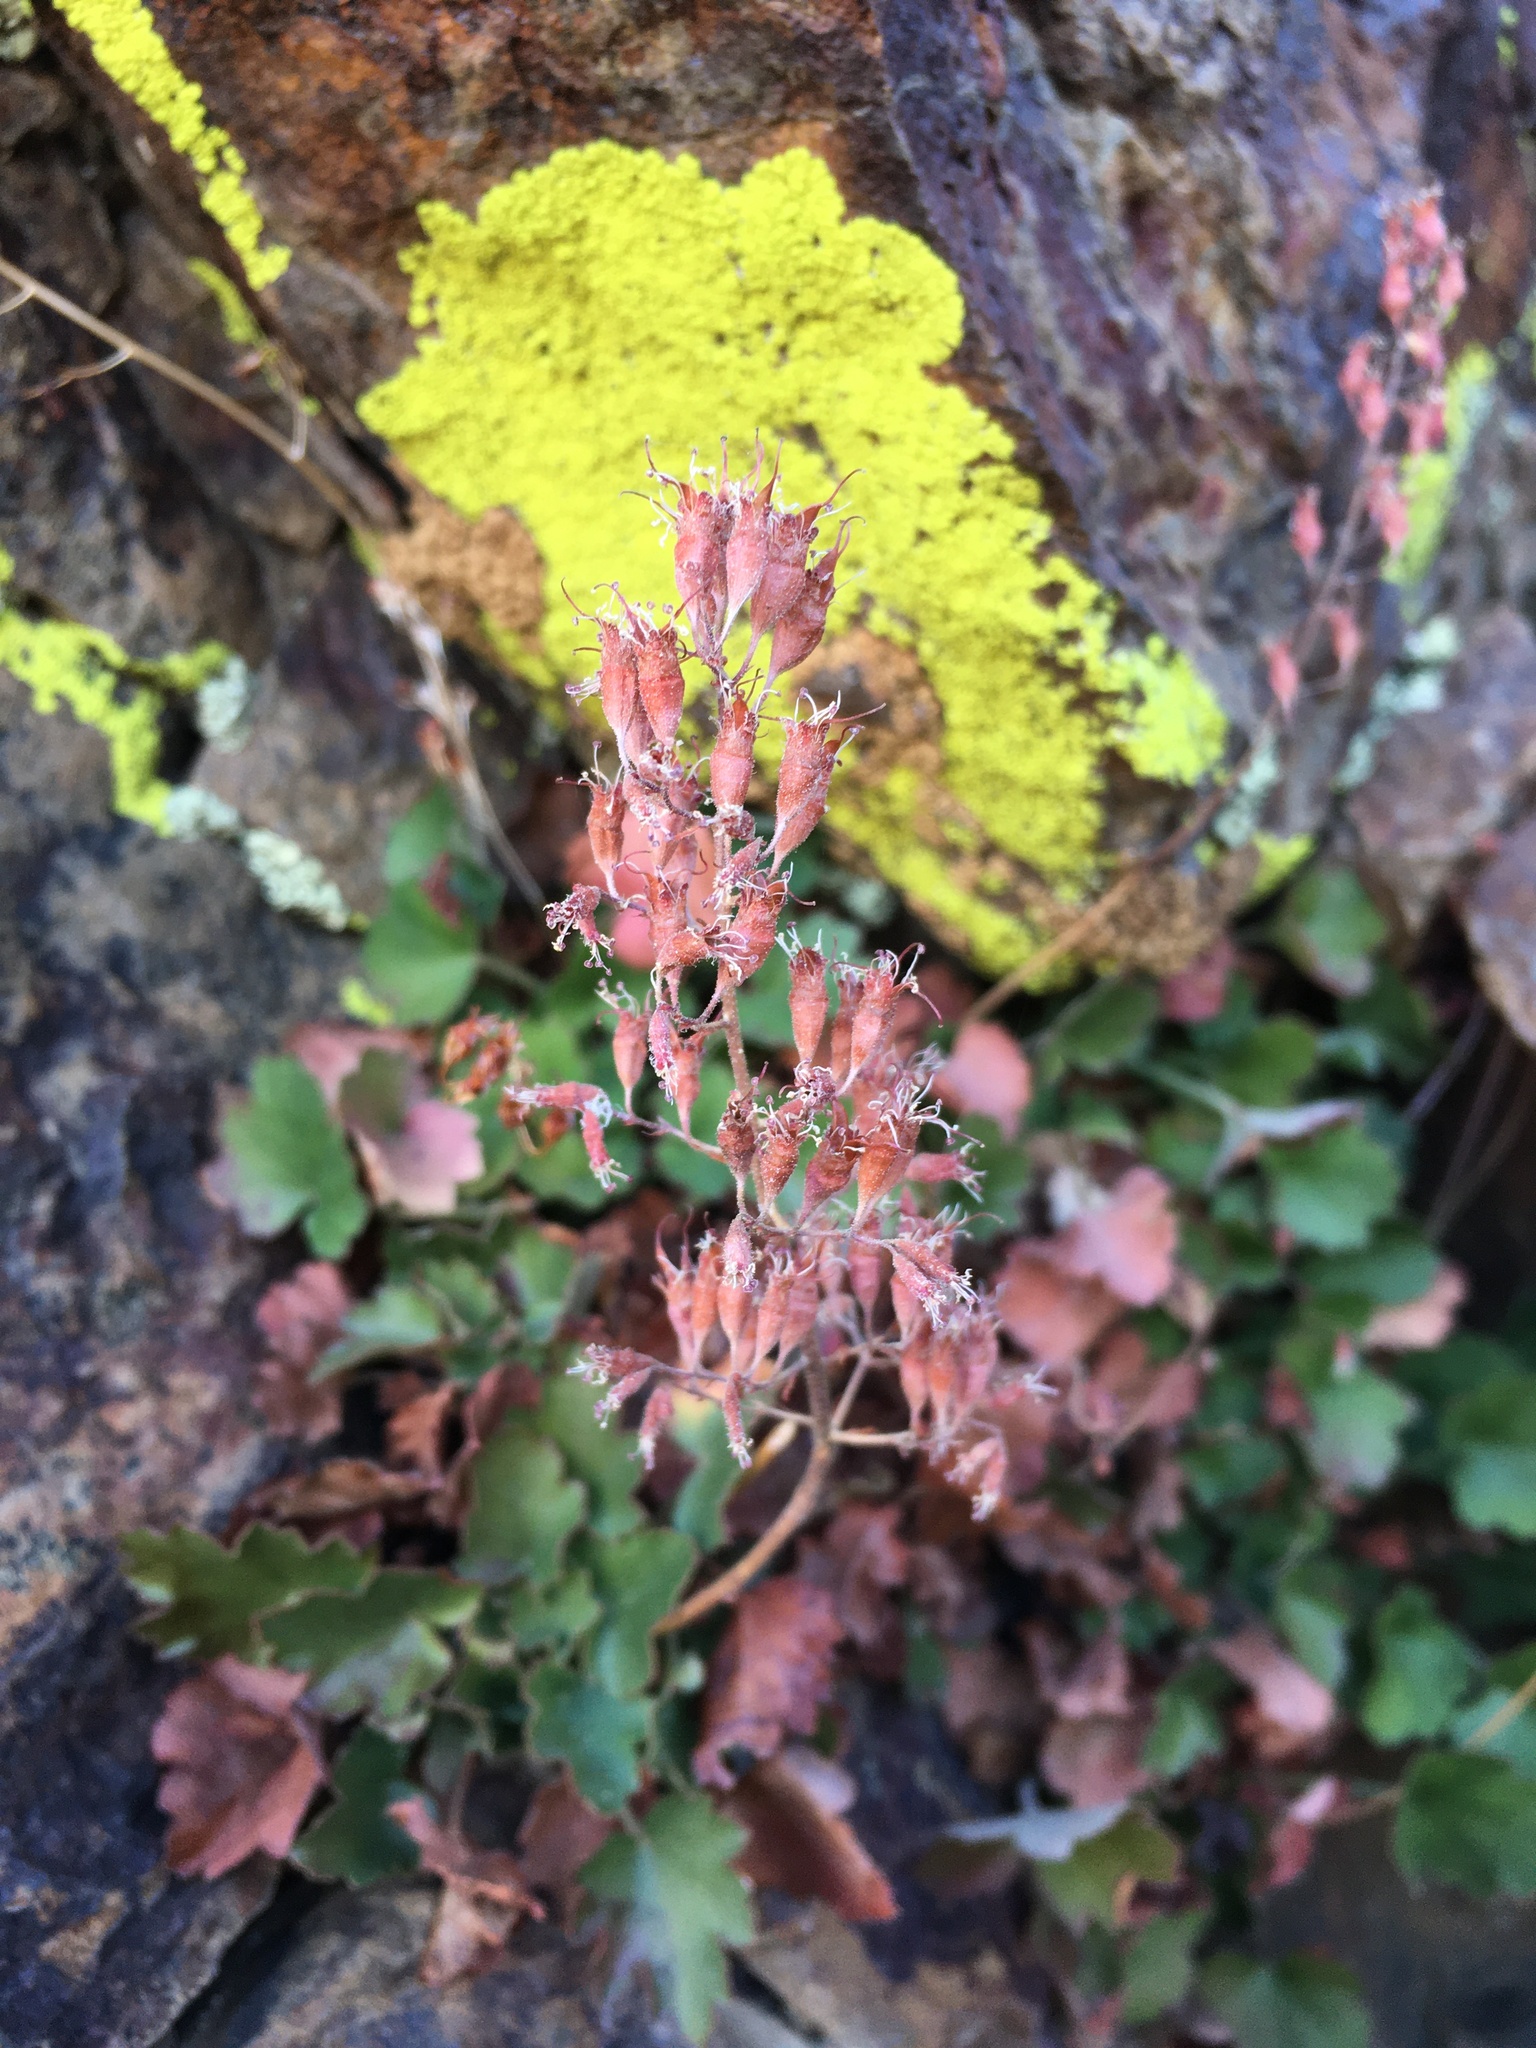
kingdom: Plantae
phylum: Tracheophyta
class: Magnoliopsida
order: Saxifragales
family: Saxifragaceae
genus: Heuchera
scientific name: Heuchera rubescens
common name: Jack-o'the-rocks
